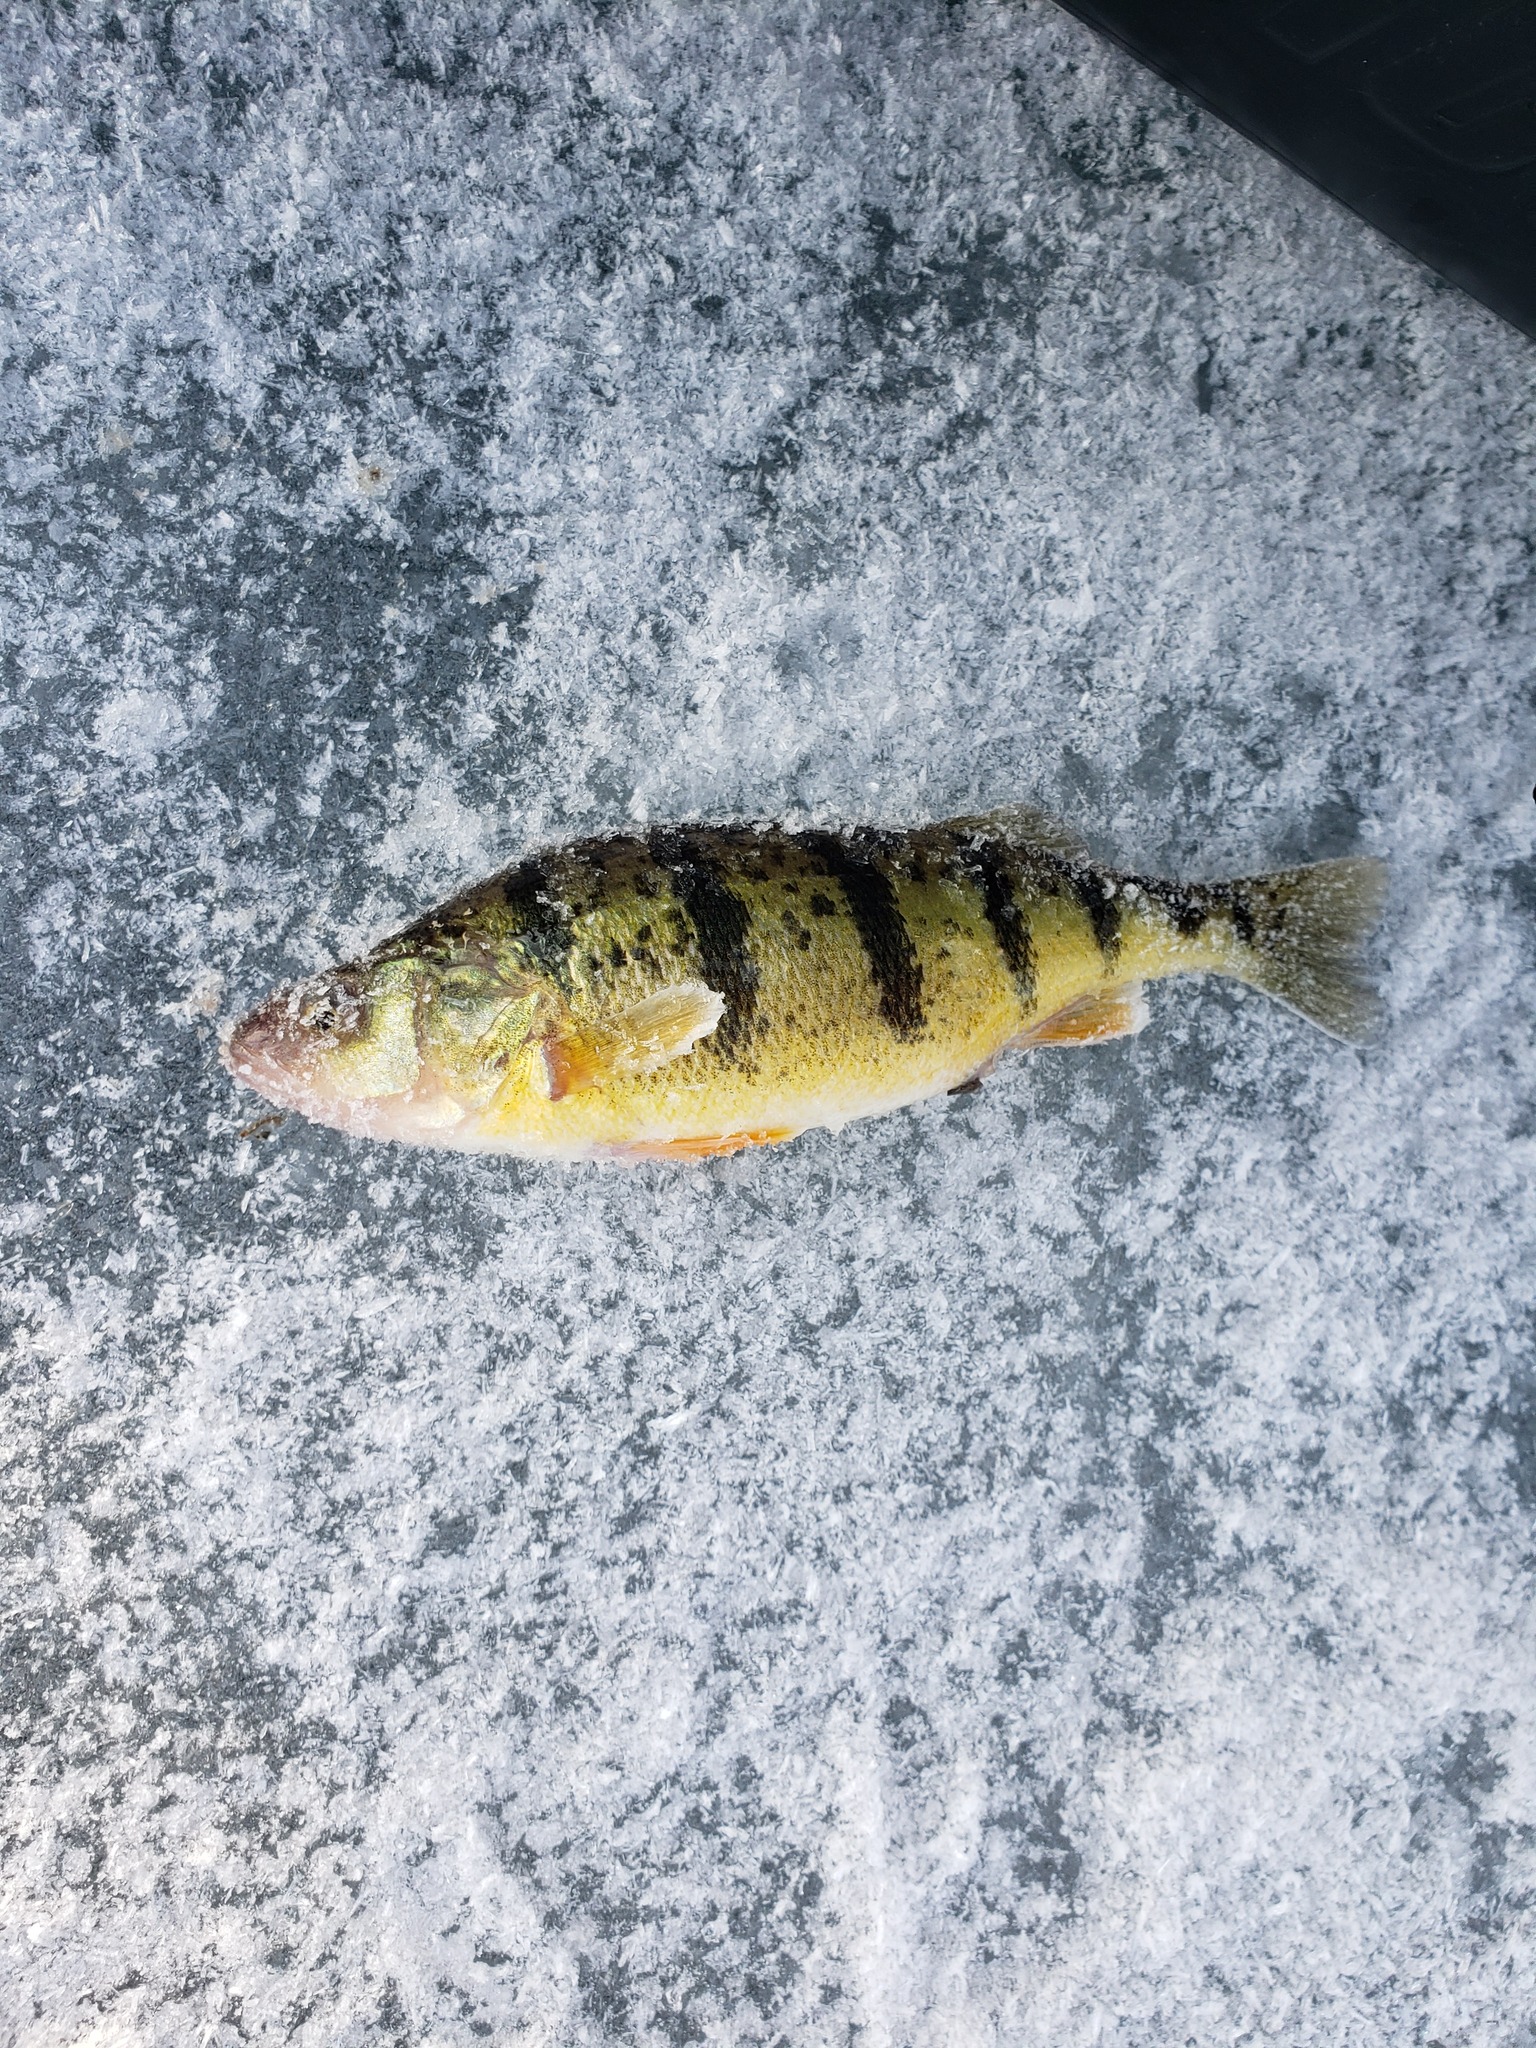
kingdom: Animalia
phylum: Chordata
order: Perciformes
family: Percidae
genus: Perca
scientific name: Perca flavescens
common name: Yellow perch
